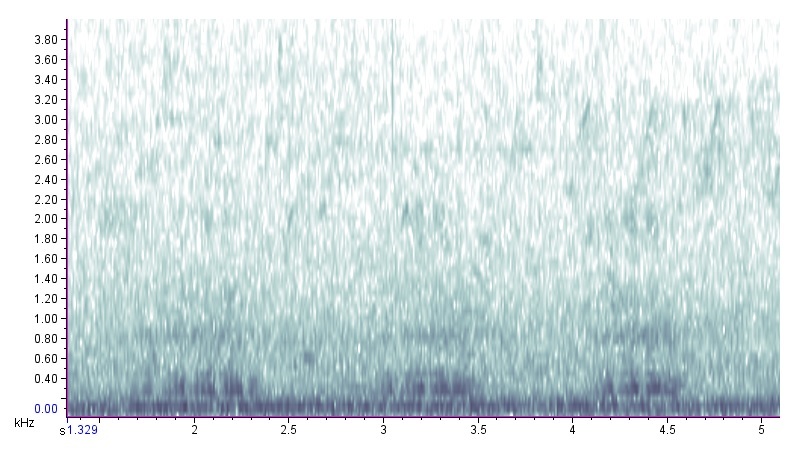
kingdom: Animalia
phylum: Chordata
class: Amphibia
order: Anura
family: Ranidae
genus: Lithobates
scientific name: Lithobates catesbeianus
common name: American bullfrog
